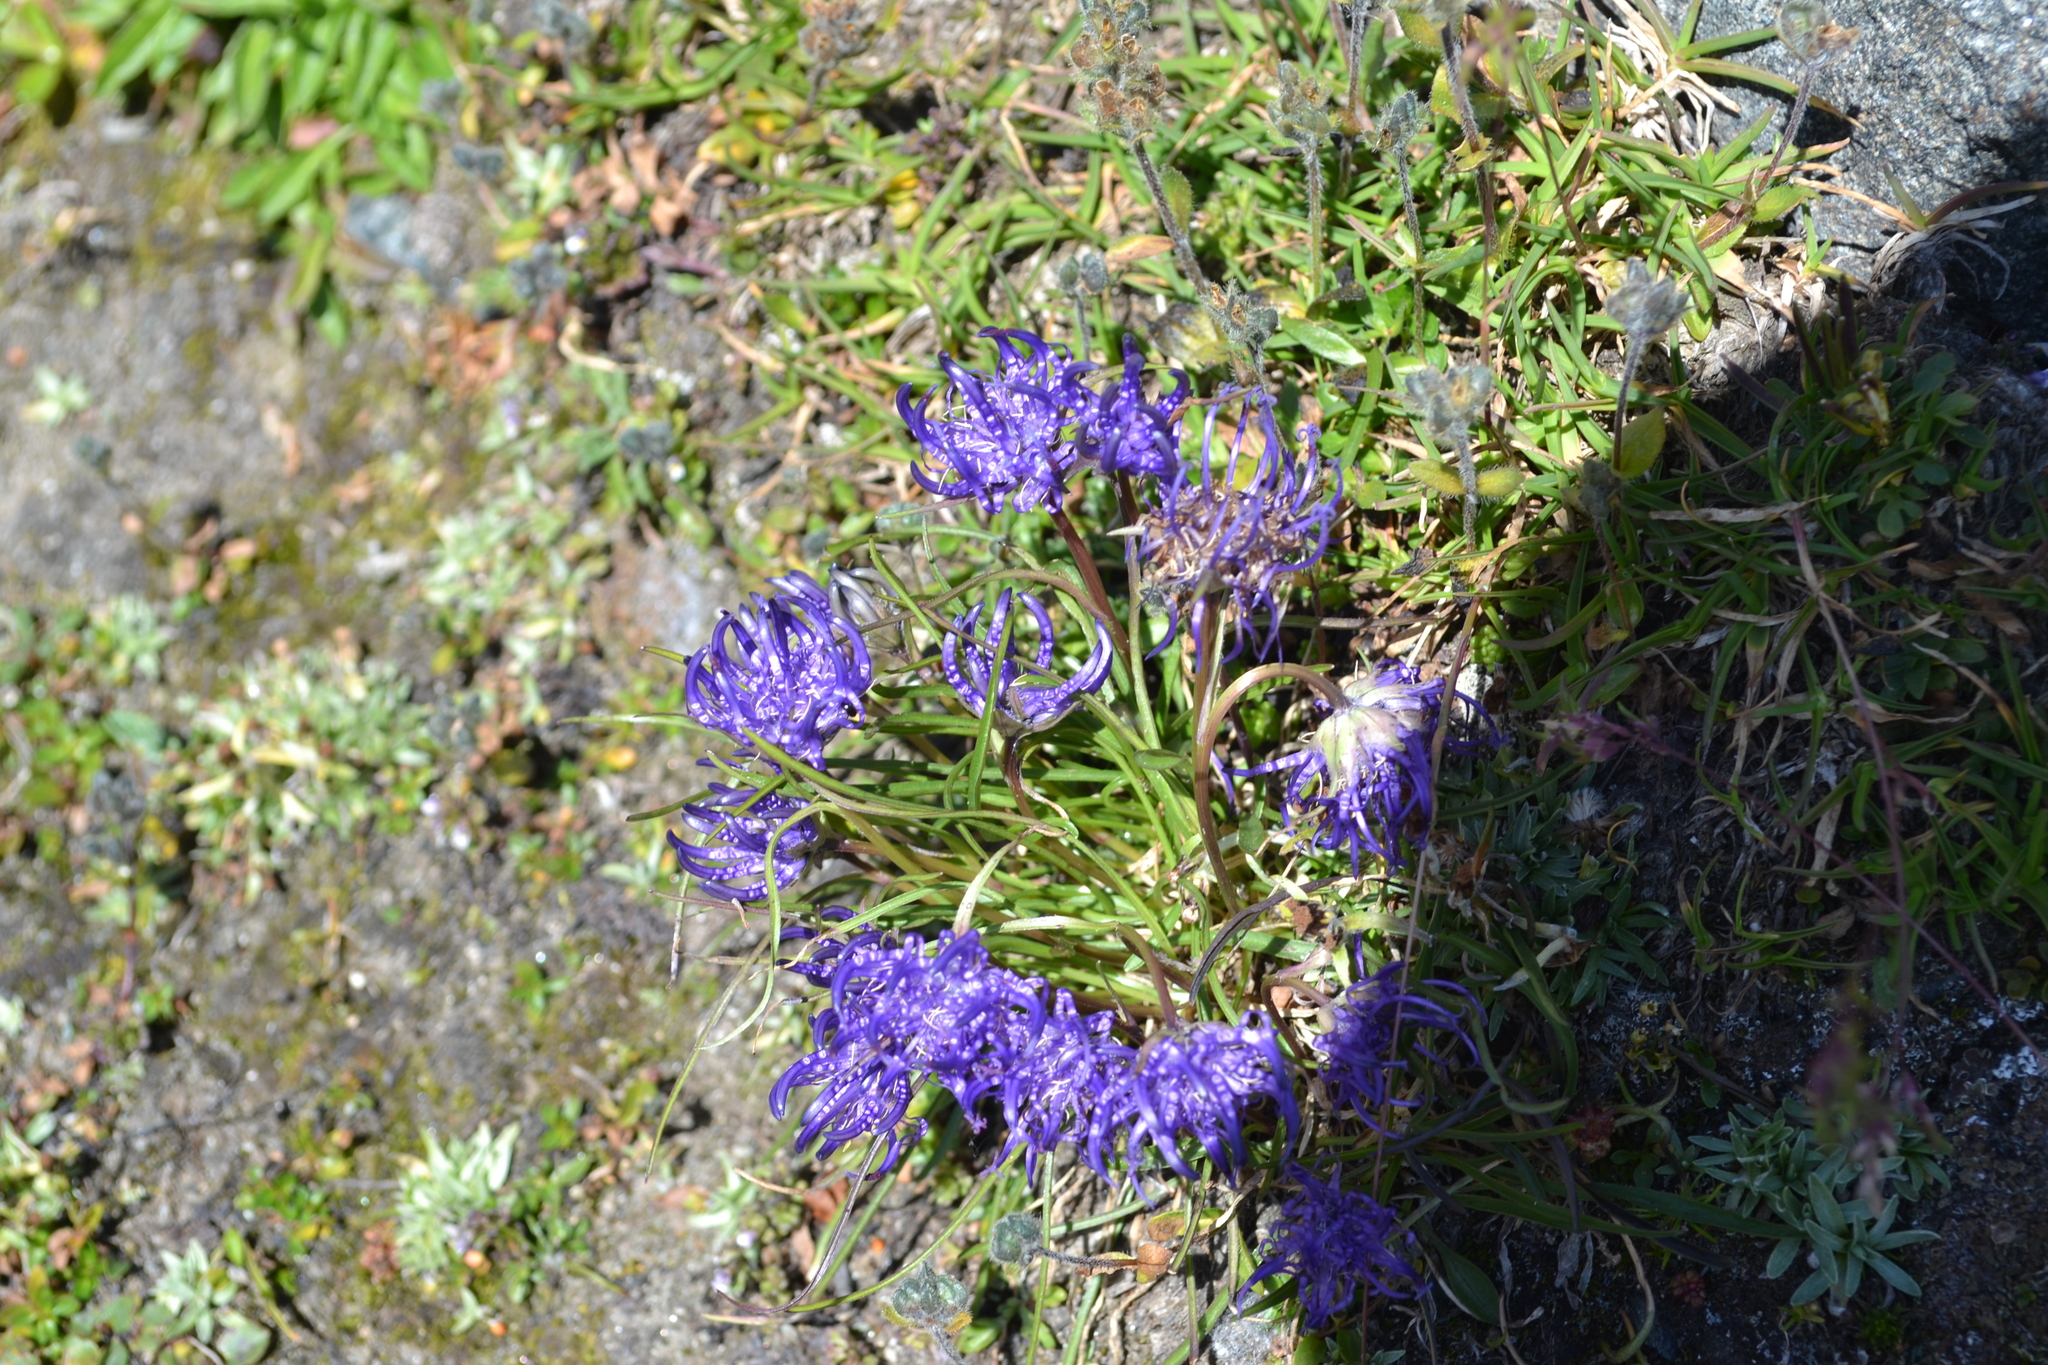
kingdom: Plantae
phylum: Tracheophyta
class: Magnoliopsida
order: Asterales
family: Campanulaceae
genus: Phyteuma
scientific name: Phyteuma hemisphaericum
